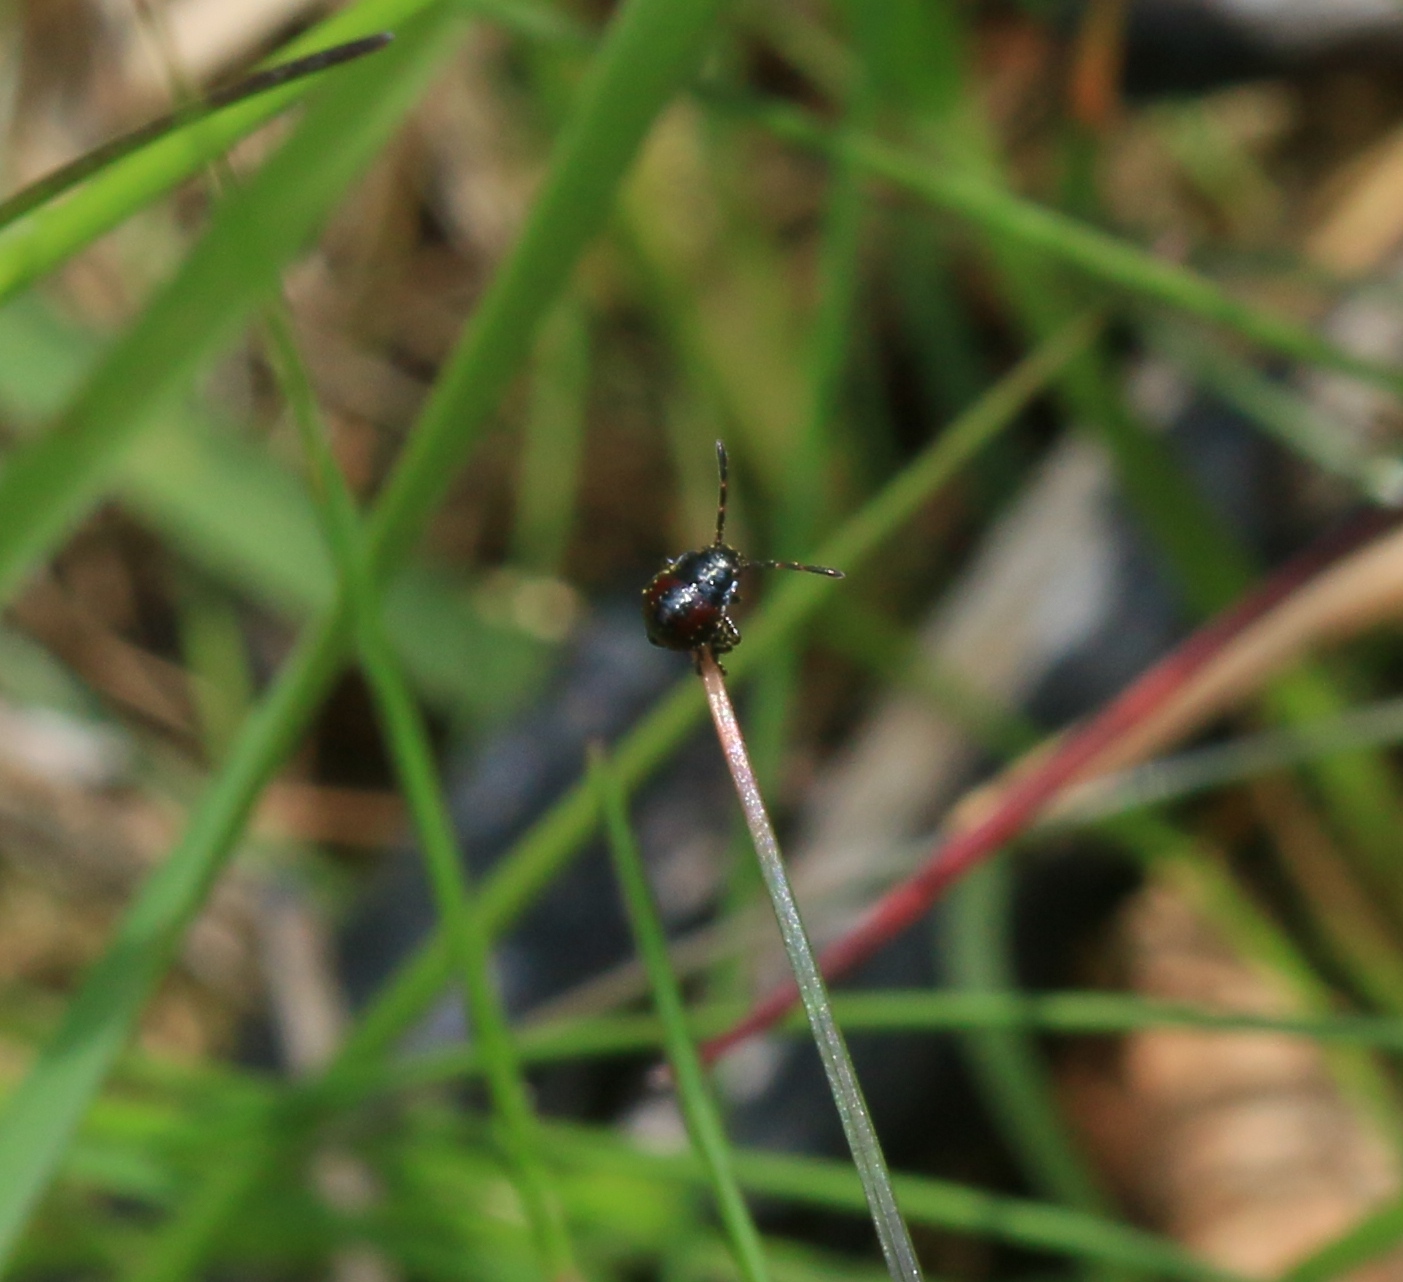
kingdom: Animalia
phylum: Arthropoda
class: Insecta
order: Hemiptera
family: Pentatomidae
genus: Picromerus
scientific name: Picromerus bidens
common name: Spiked shieldbug
